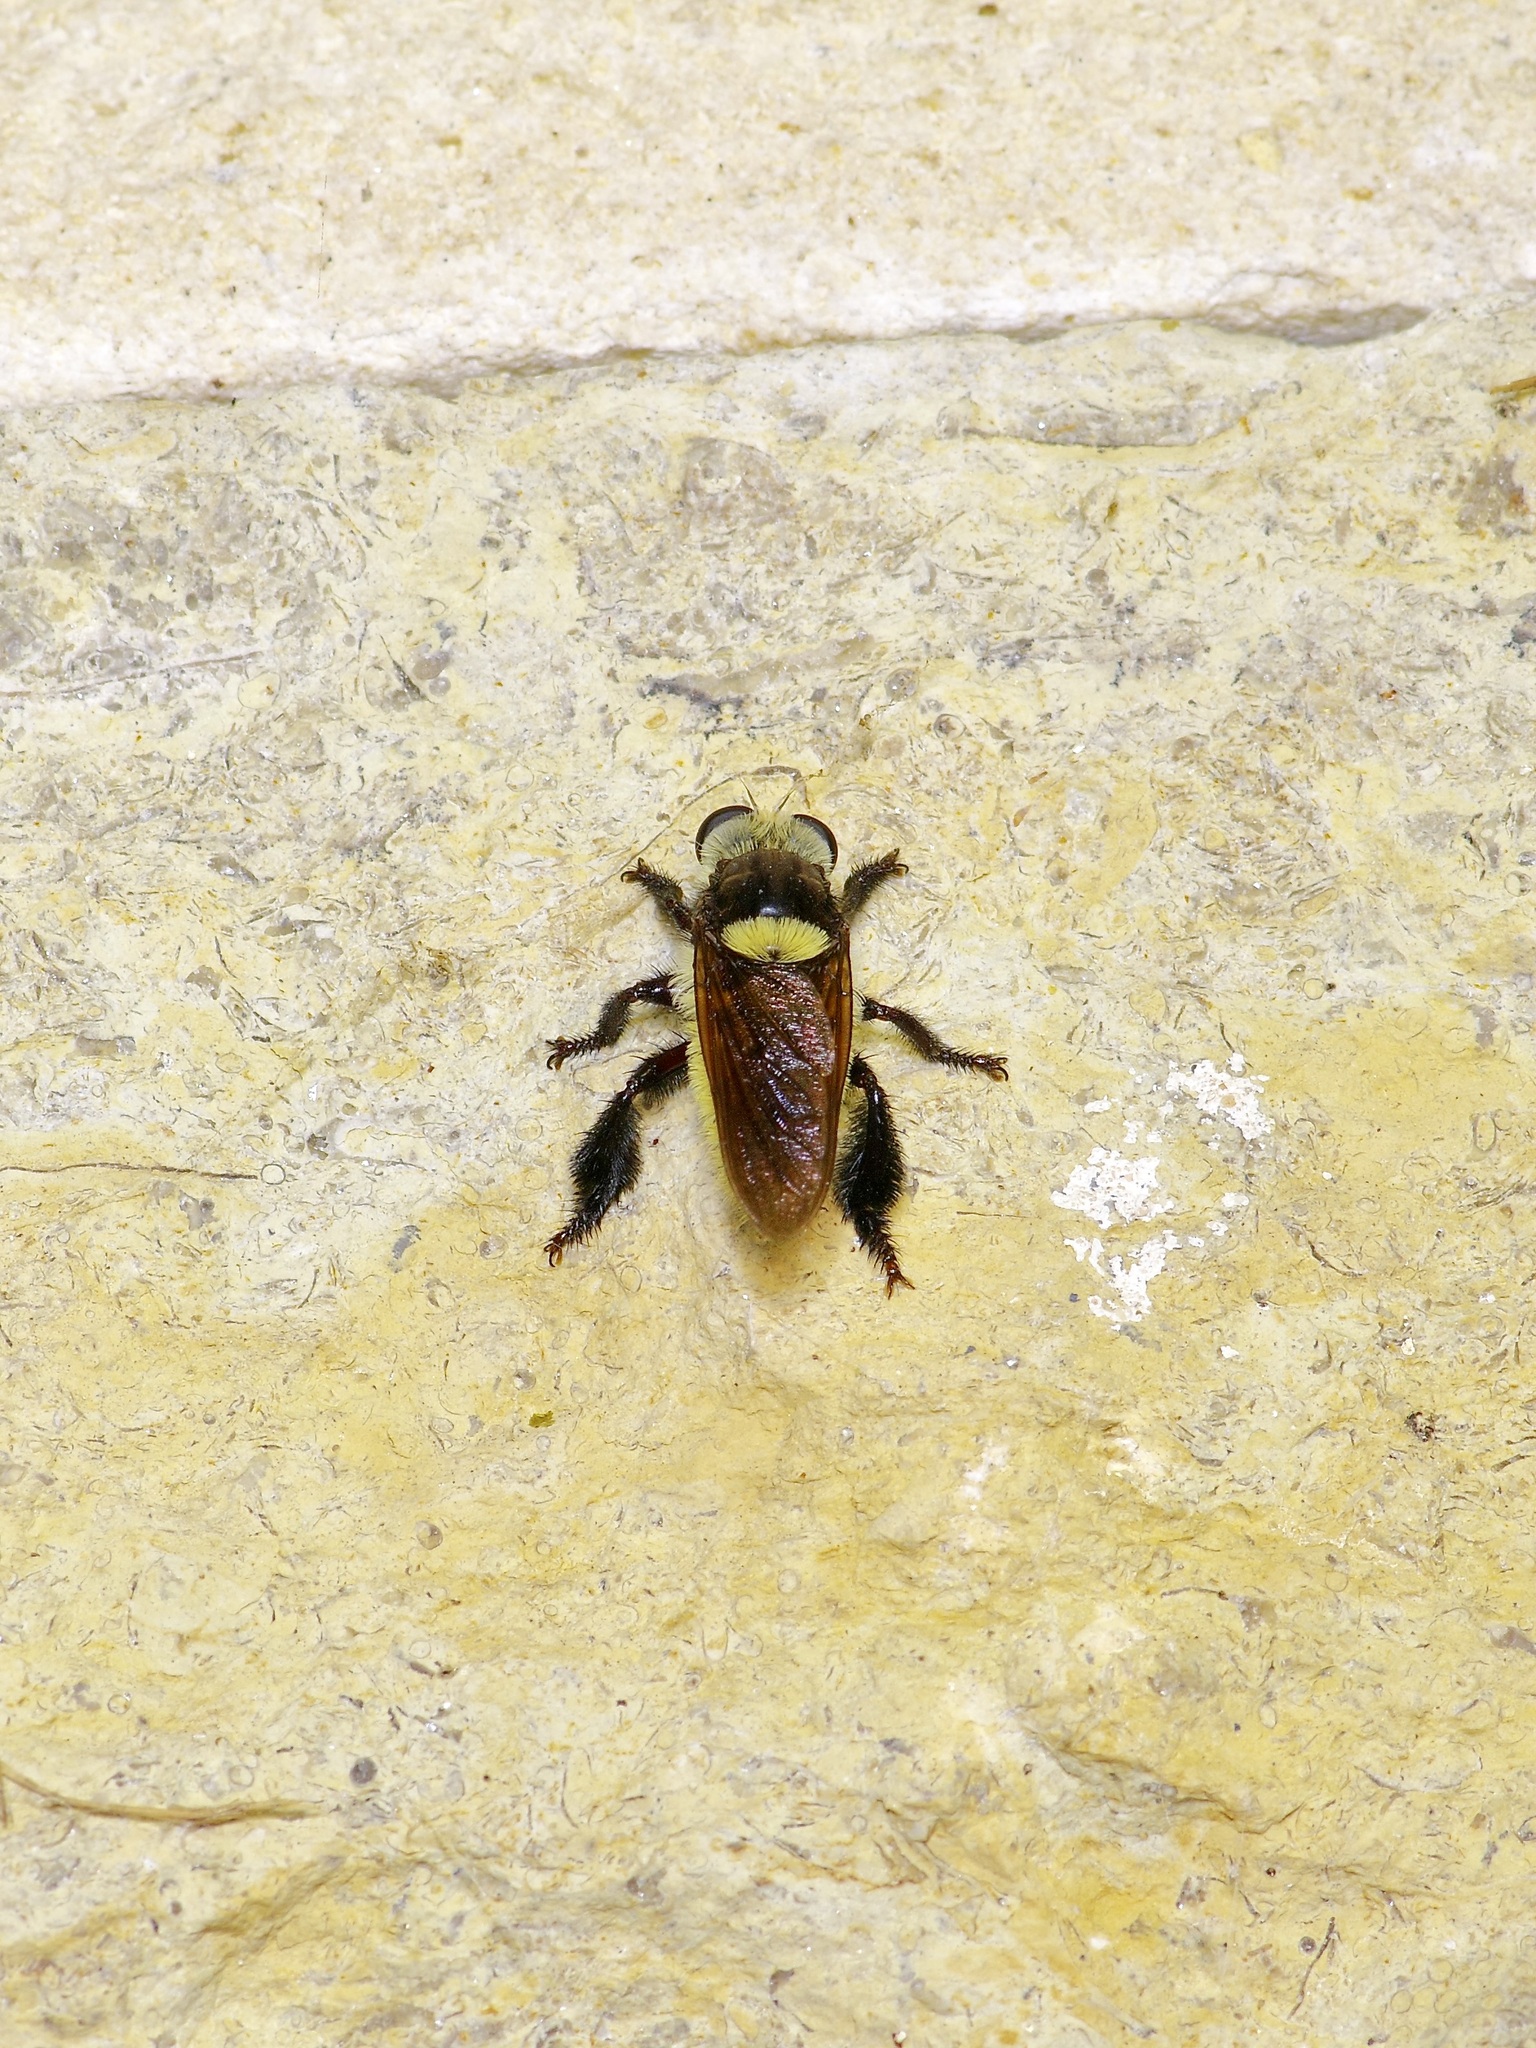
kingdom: Animalia
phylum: Arthropoda
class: Insecta
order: Diptera
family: Asilidae
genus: Mallophora
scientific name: Mallophora fautrix
